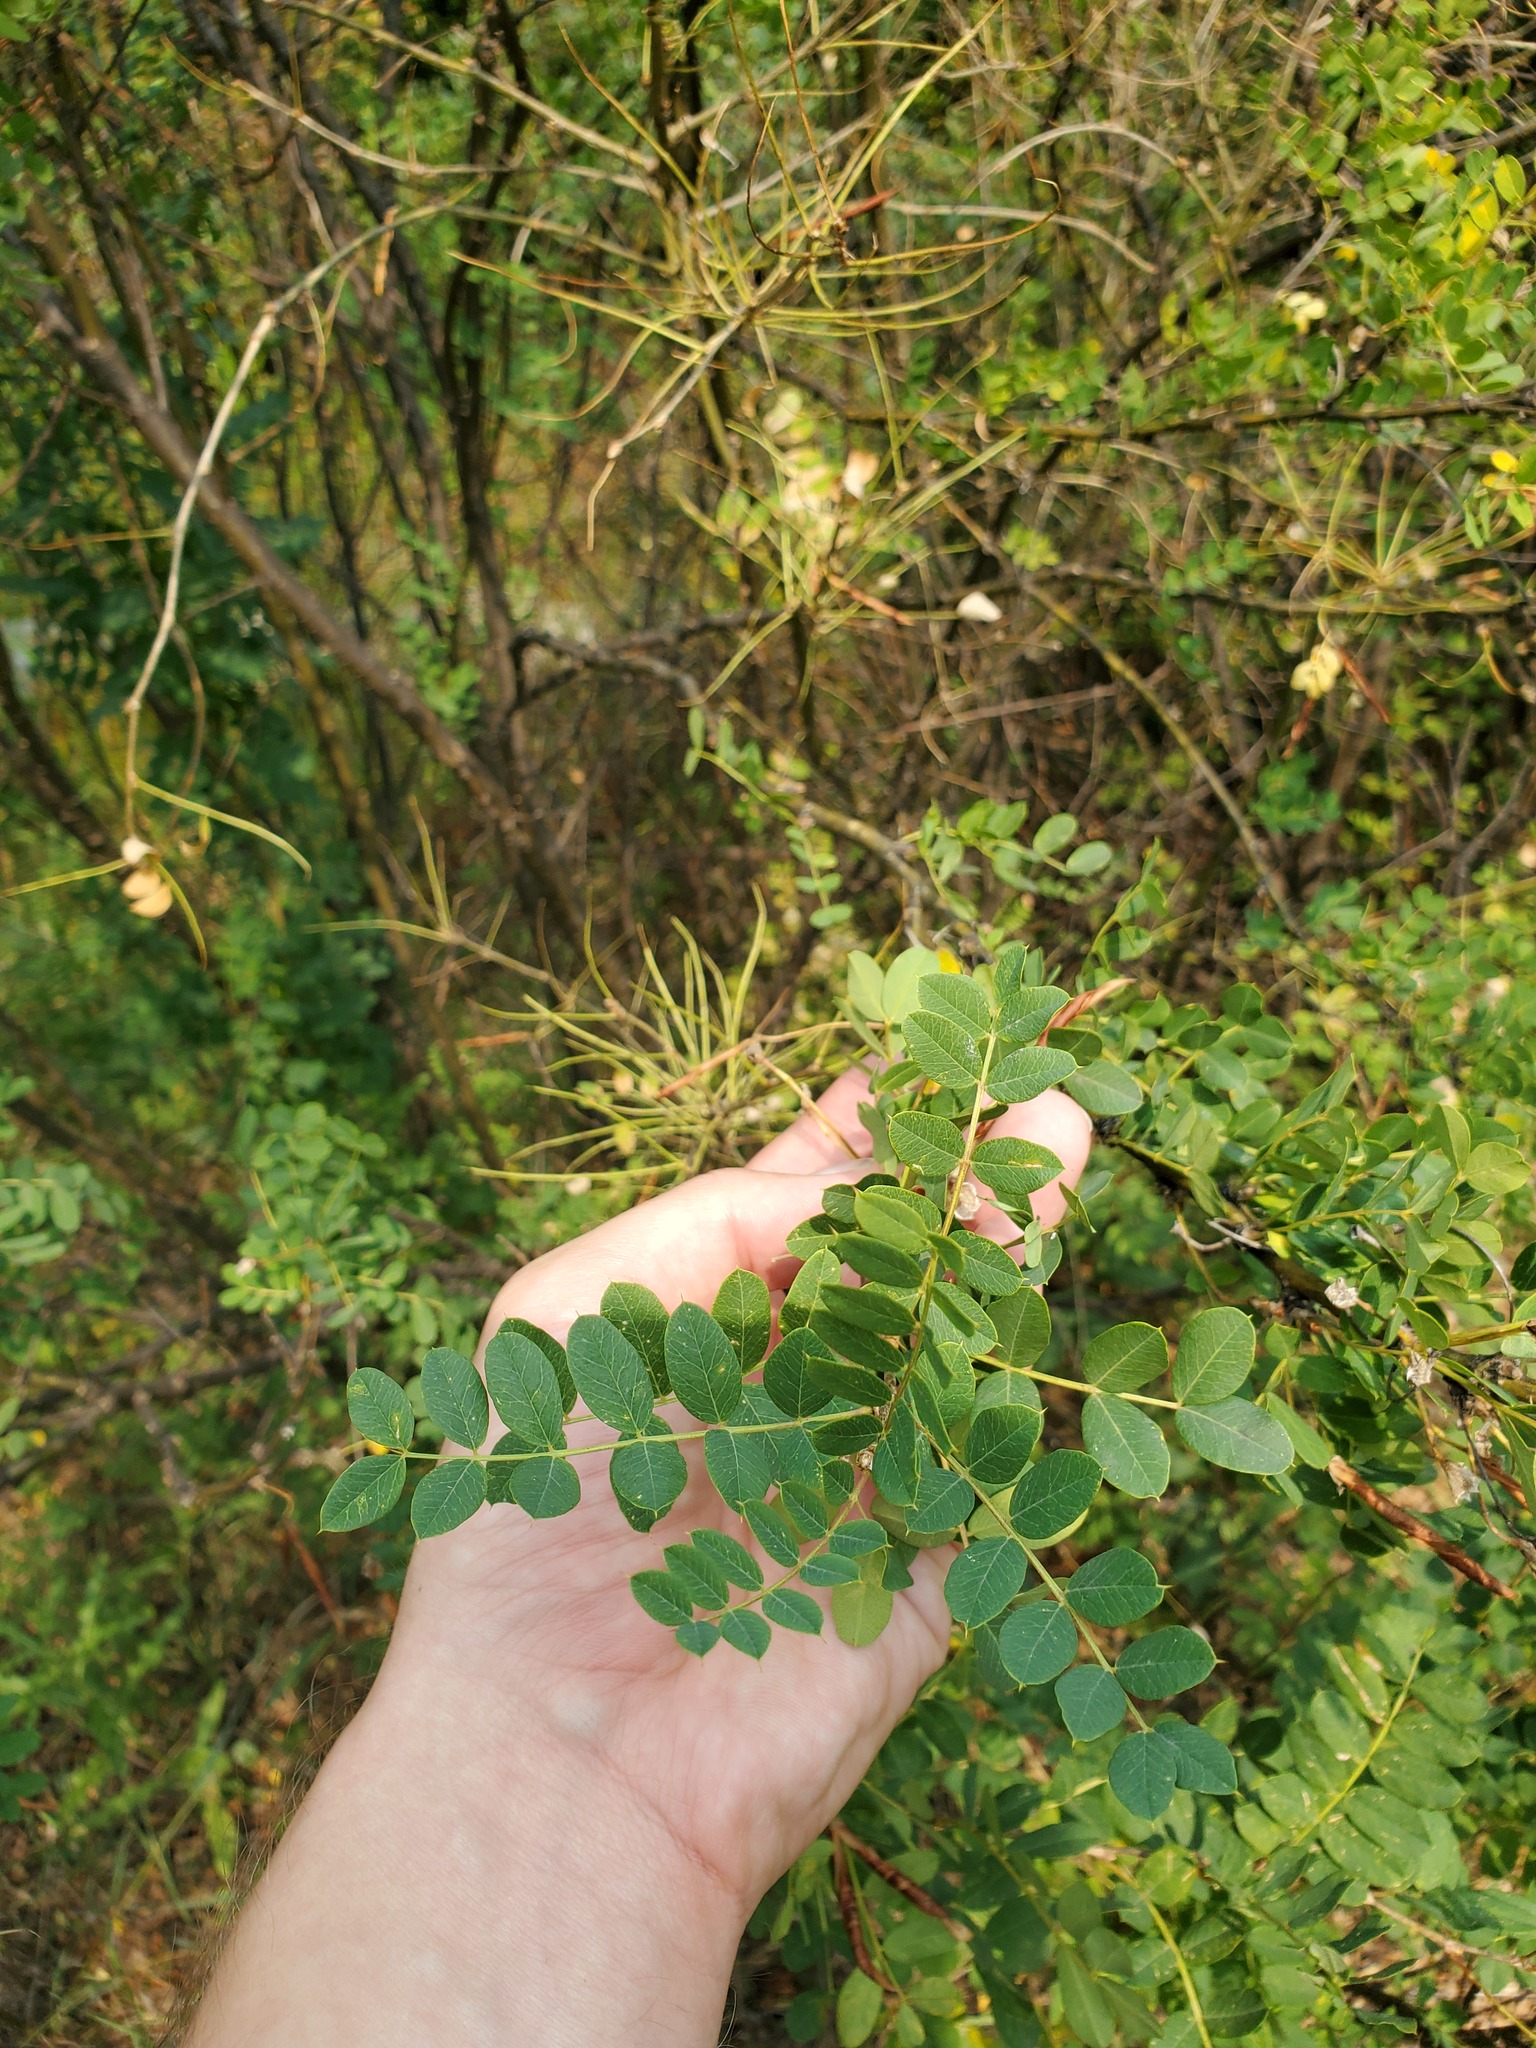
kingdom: Plantae
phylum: Tracheophyta
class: Magnoliopsida
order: Fabales
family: Fabaceae
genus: Caragana
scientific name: Caragana arborescens
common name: Siberian peashrub
